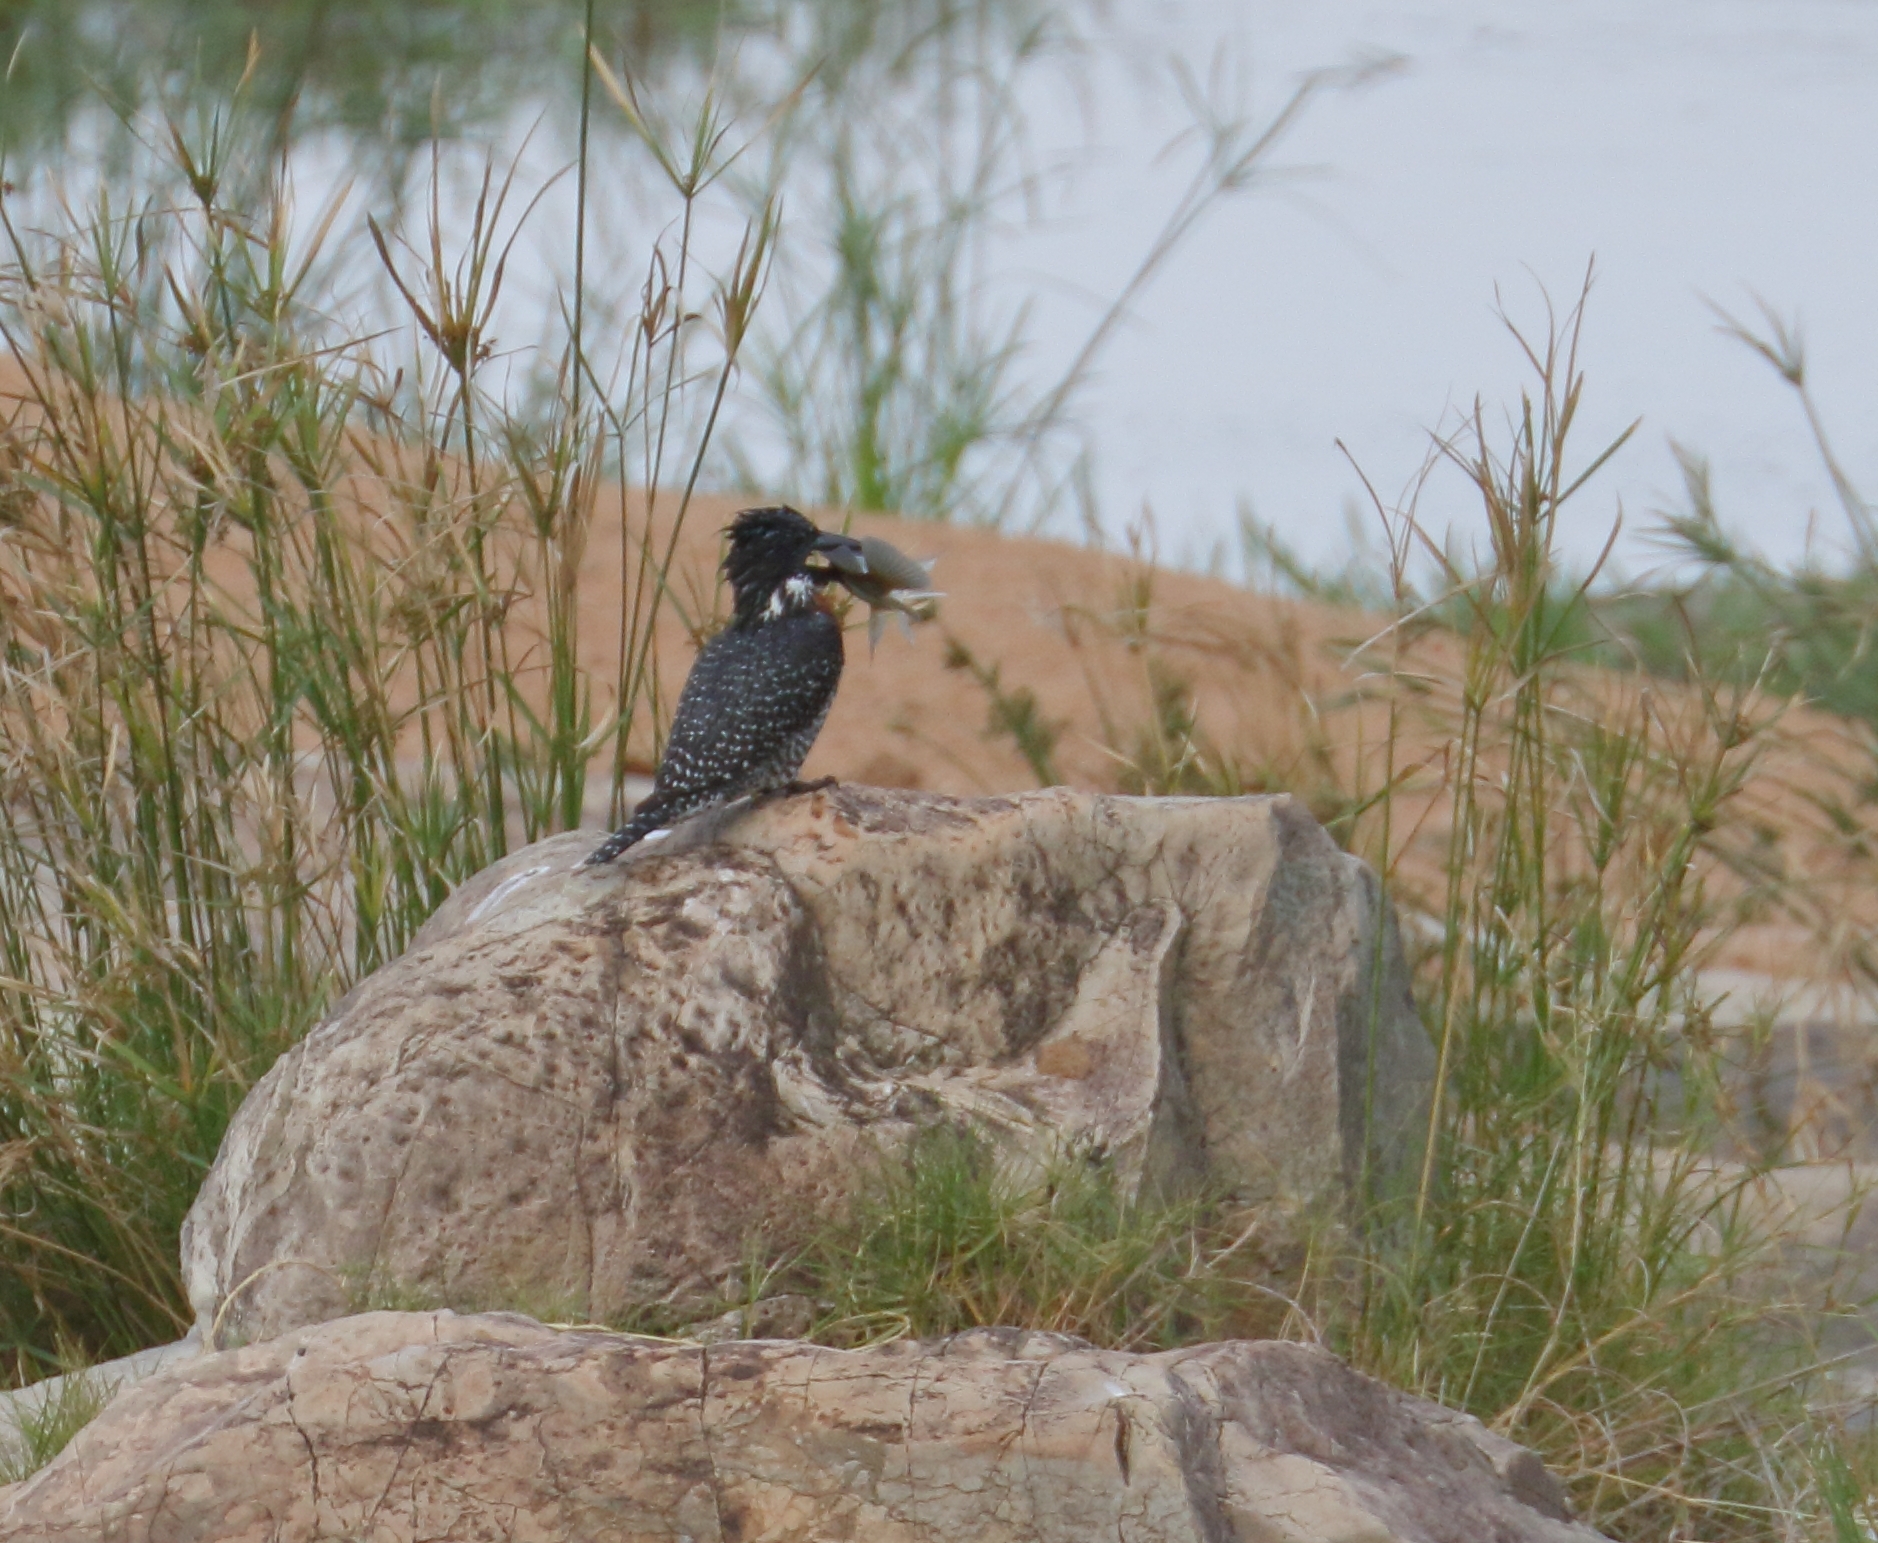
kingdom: Animalia
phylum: Chordata
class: Aves
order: Coraciiformes
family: Alcedinidae
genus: Megaceryle
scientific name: Megaceryle maxima
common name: Giant kingfisher
